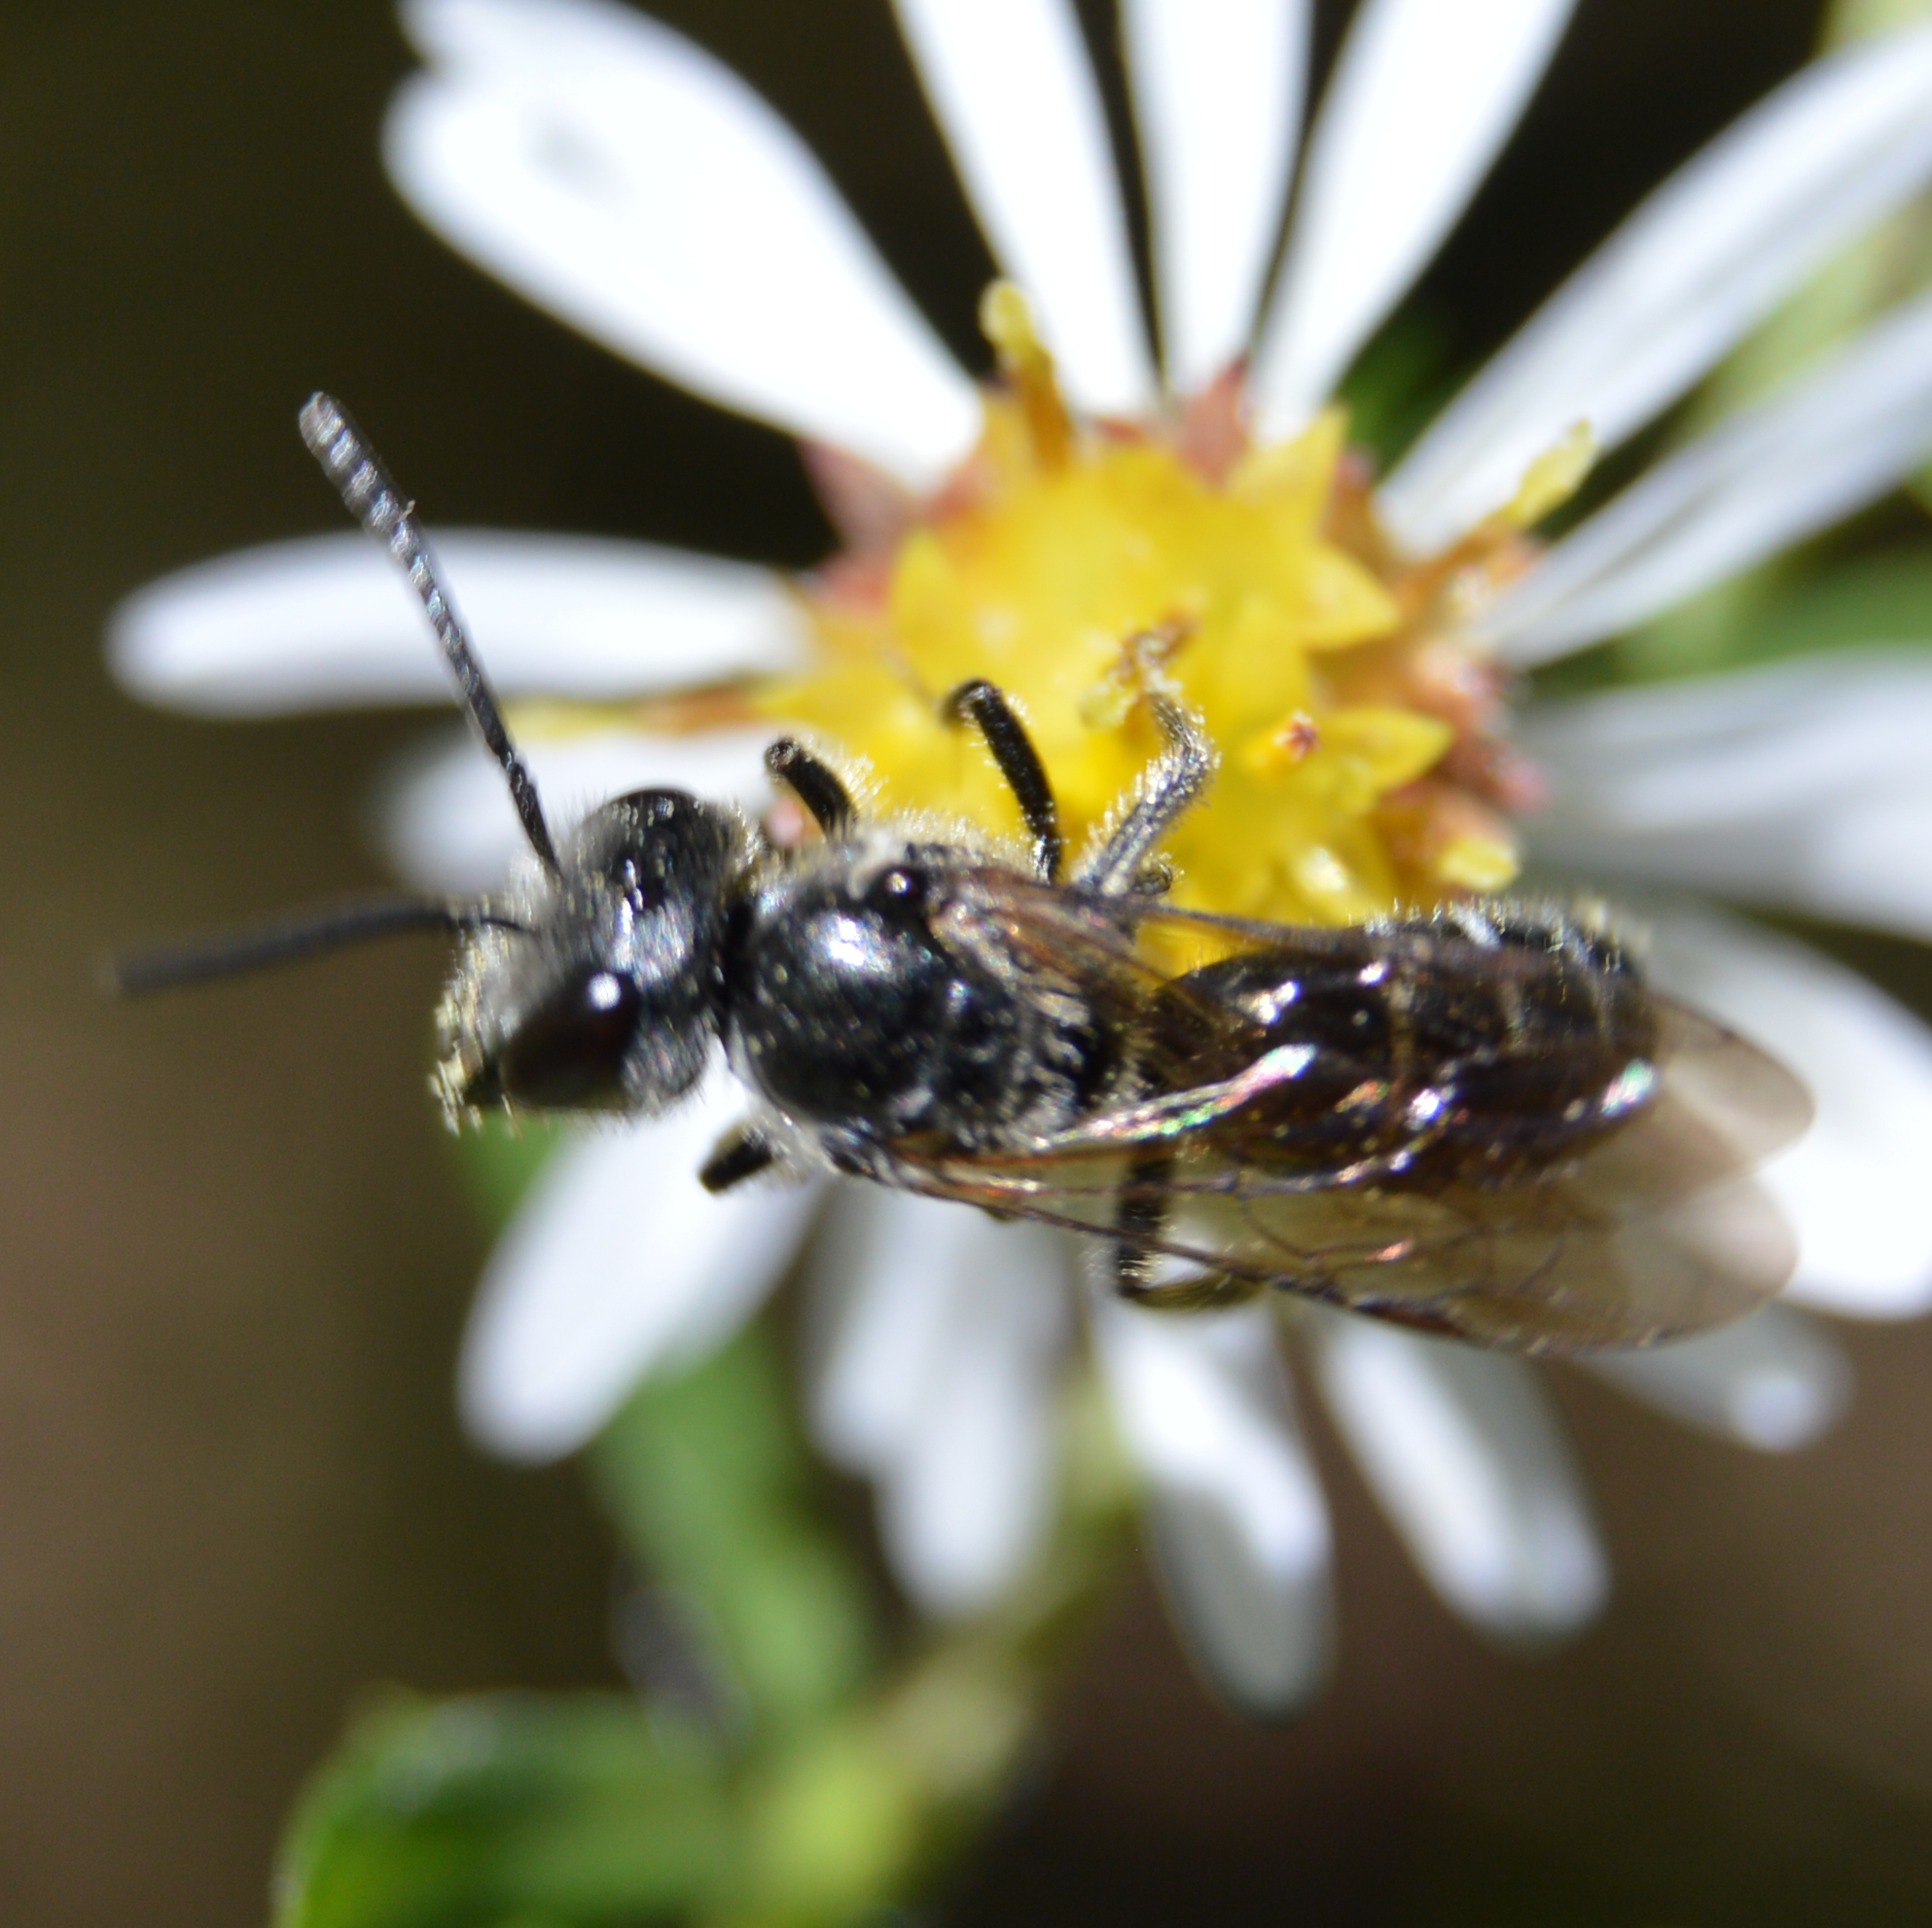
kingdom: Animalia
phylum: Arthropoda
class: Insecta
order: Hymenoptera
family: Halictidae
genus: Lasioglossum
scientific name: Lasioglossum
